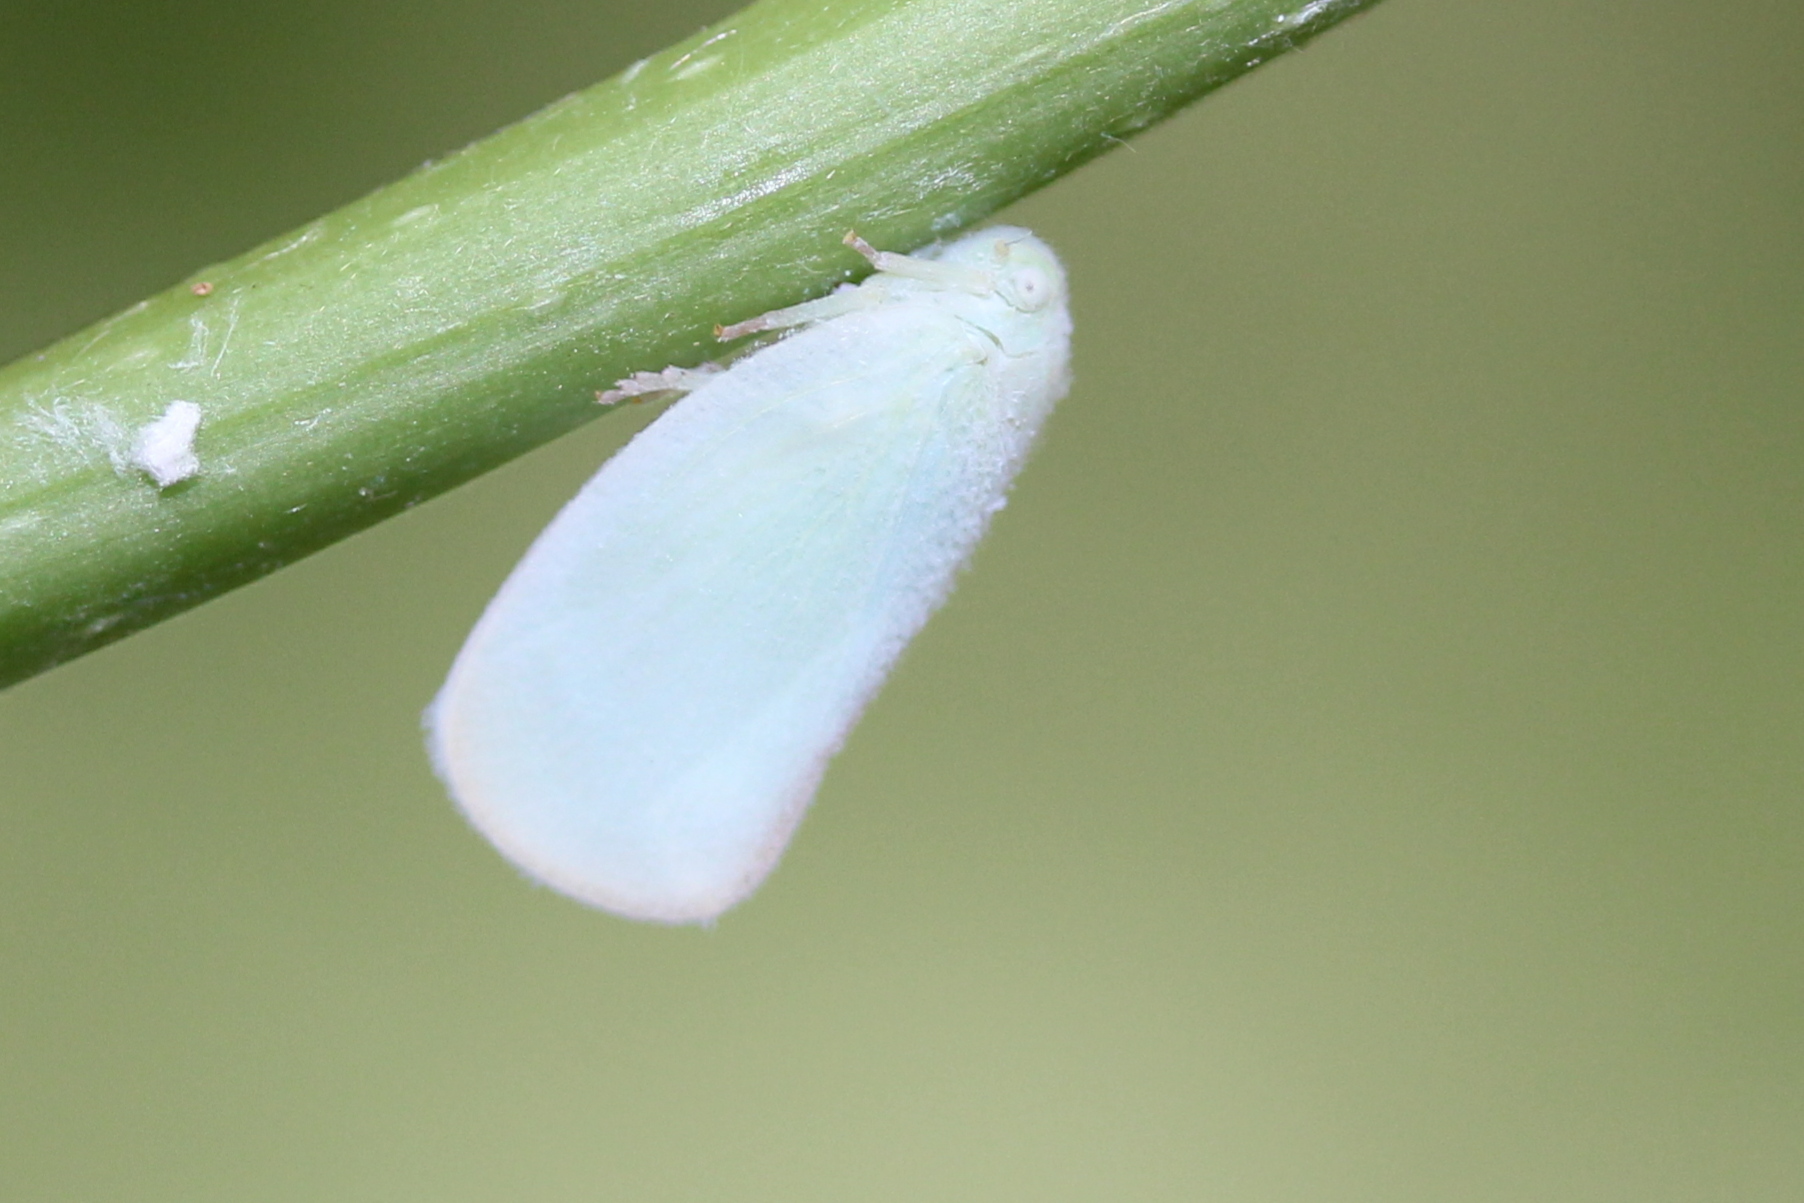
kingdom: Animalia
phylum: Arthropoda
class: Insecta
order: Hemiptera
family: Flatidae
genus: Ormenoides
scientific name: Ormenoides venusta
